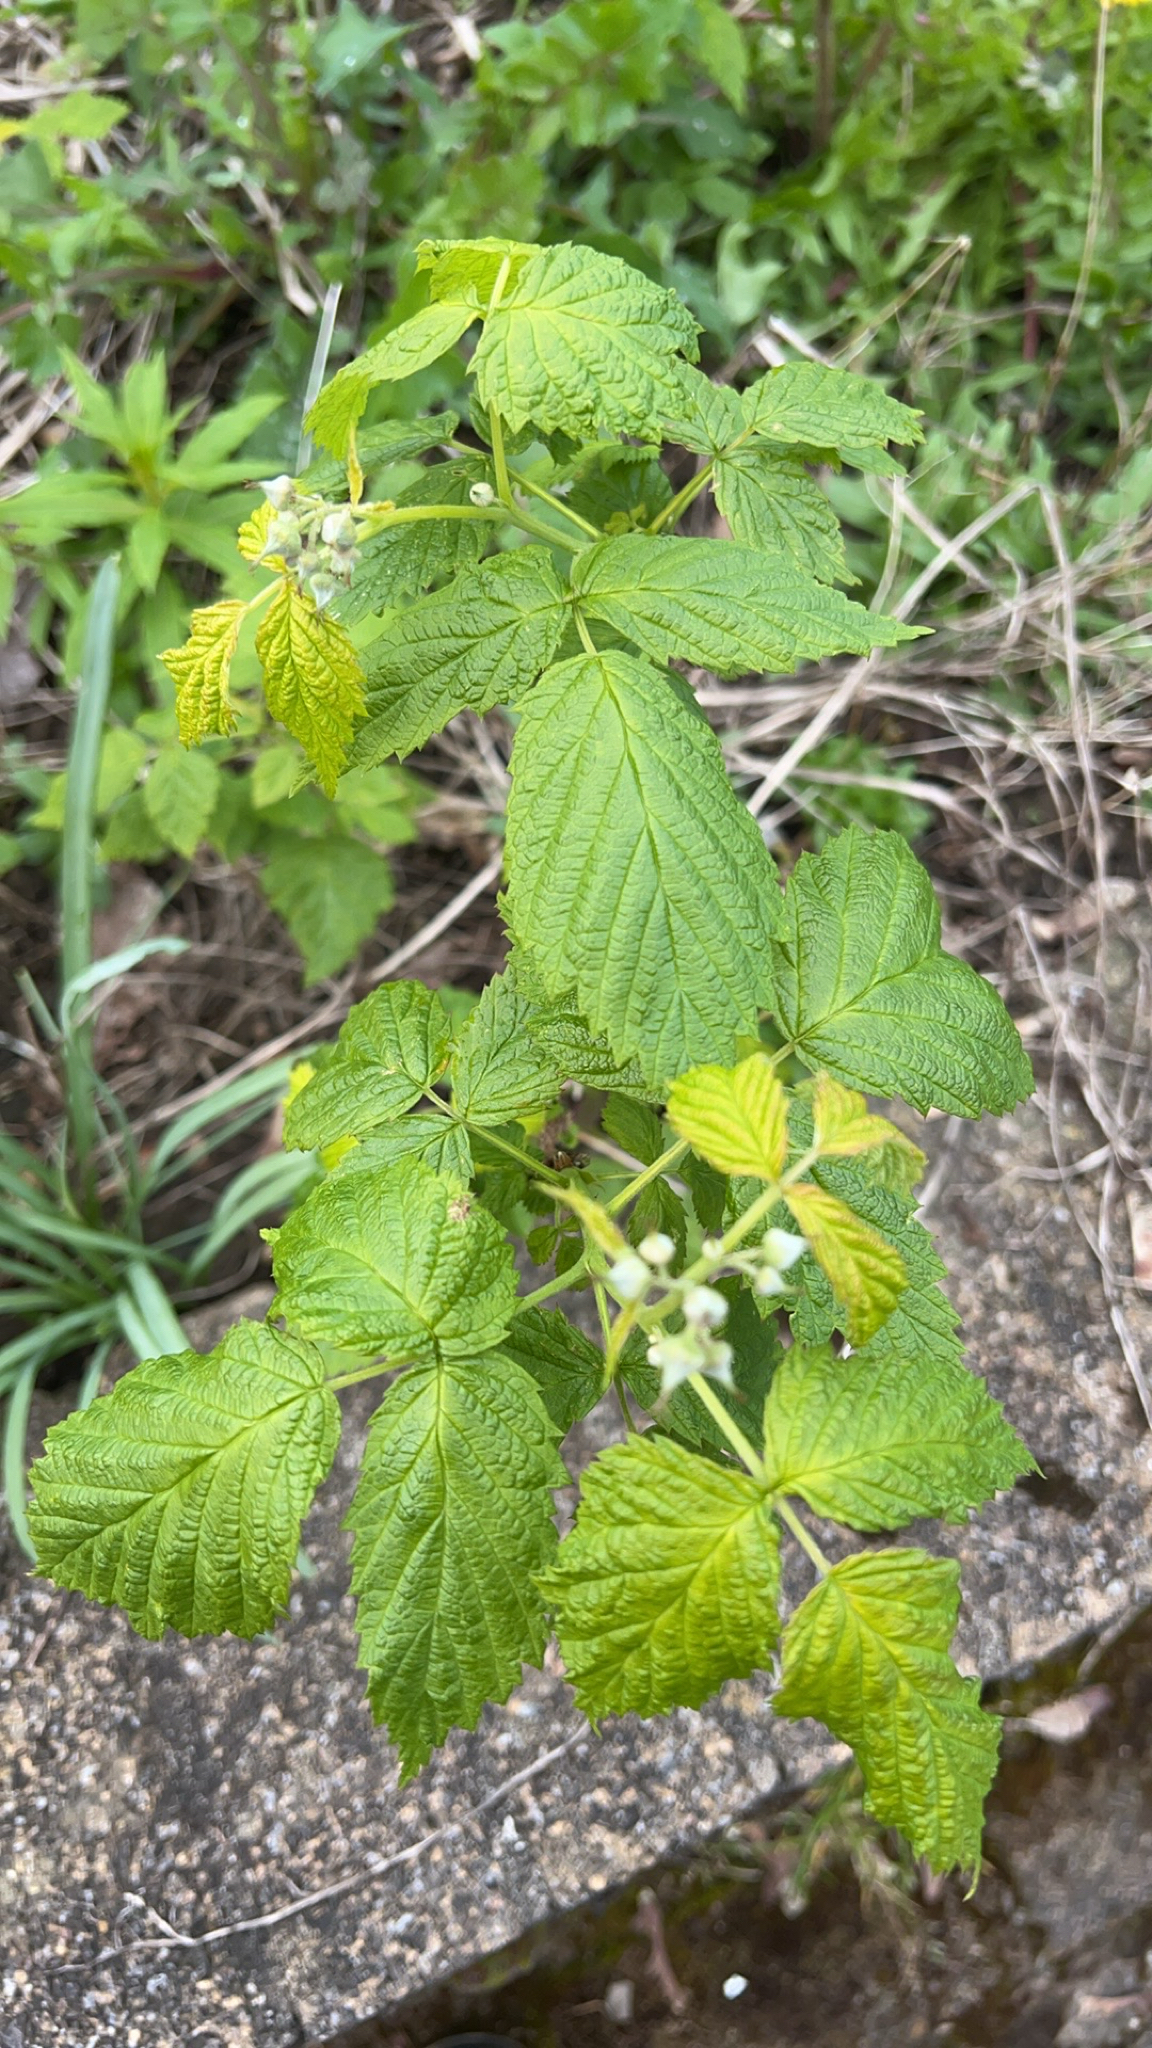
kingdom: Plantae
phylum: Tracheophyta
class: Magnoliopsida
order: Rosales
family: Rosaceae
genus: Rubus
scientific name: Rubus idaeus
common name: Raspberry
